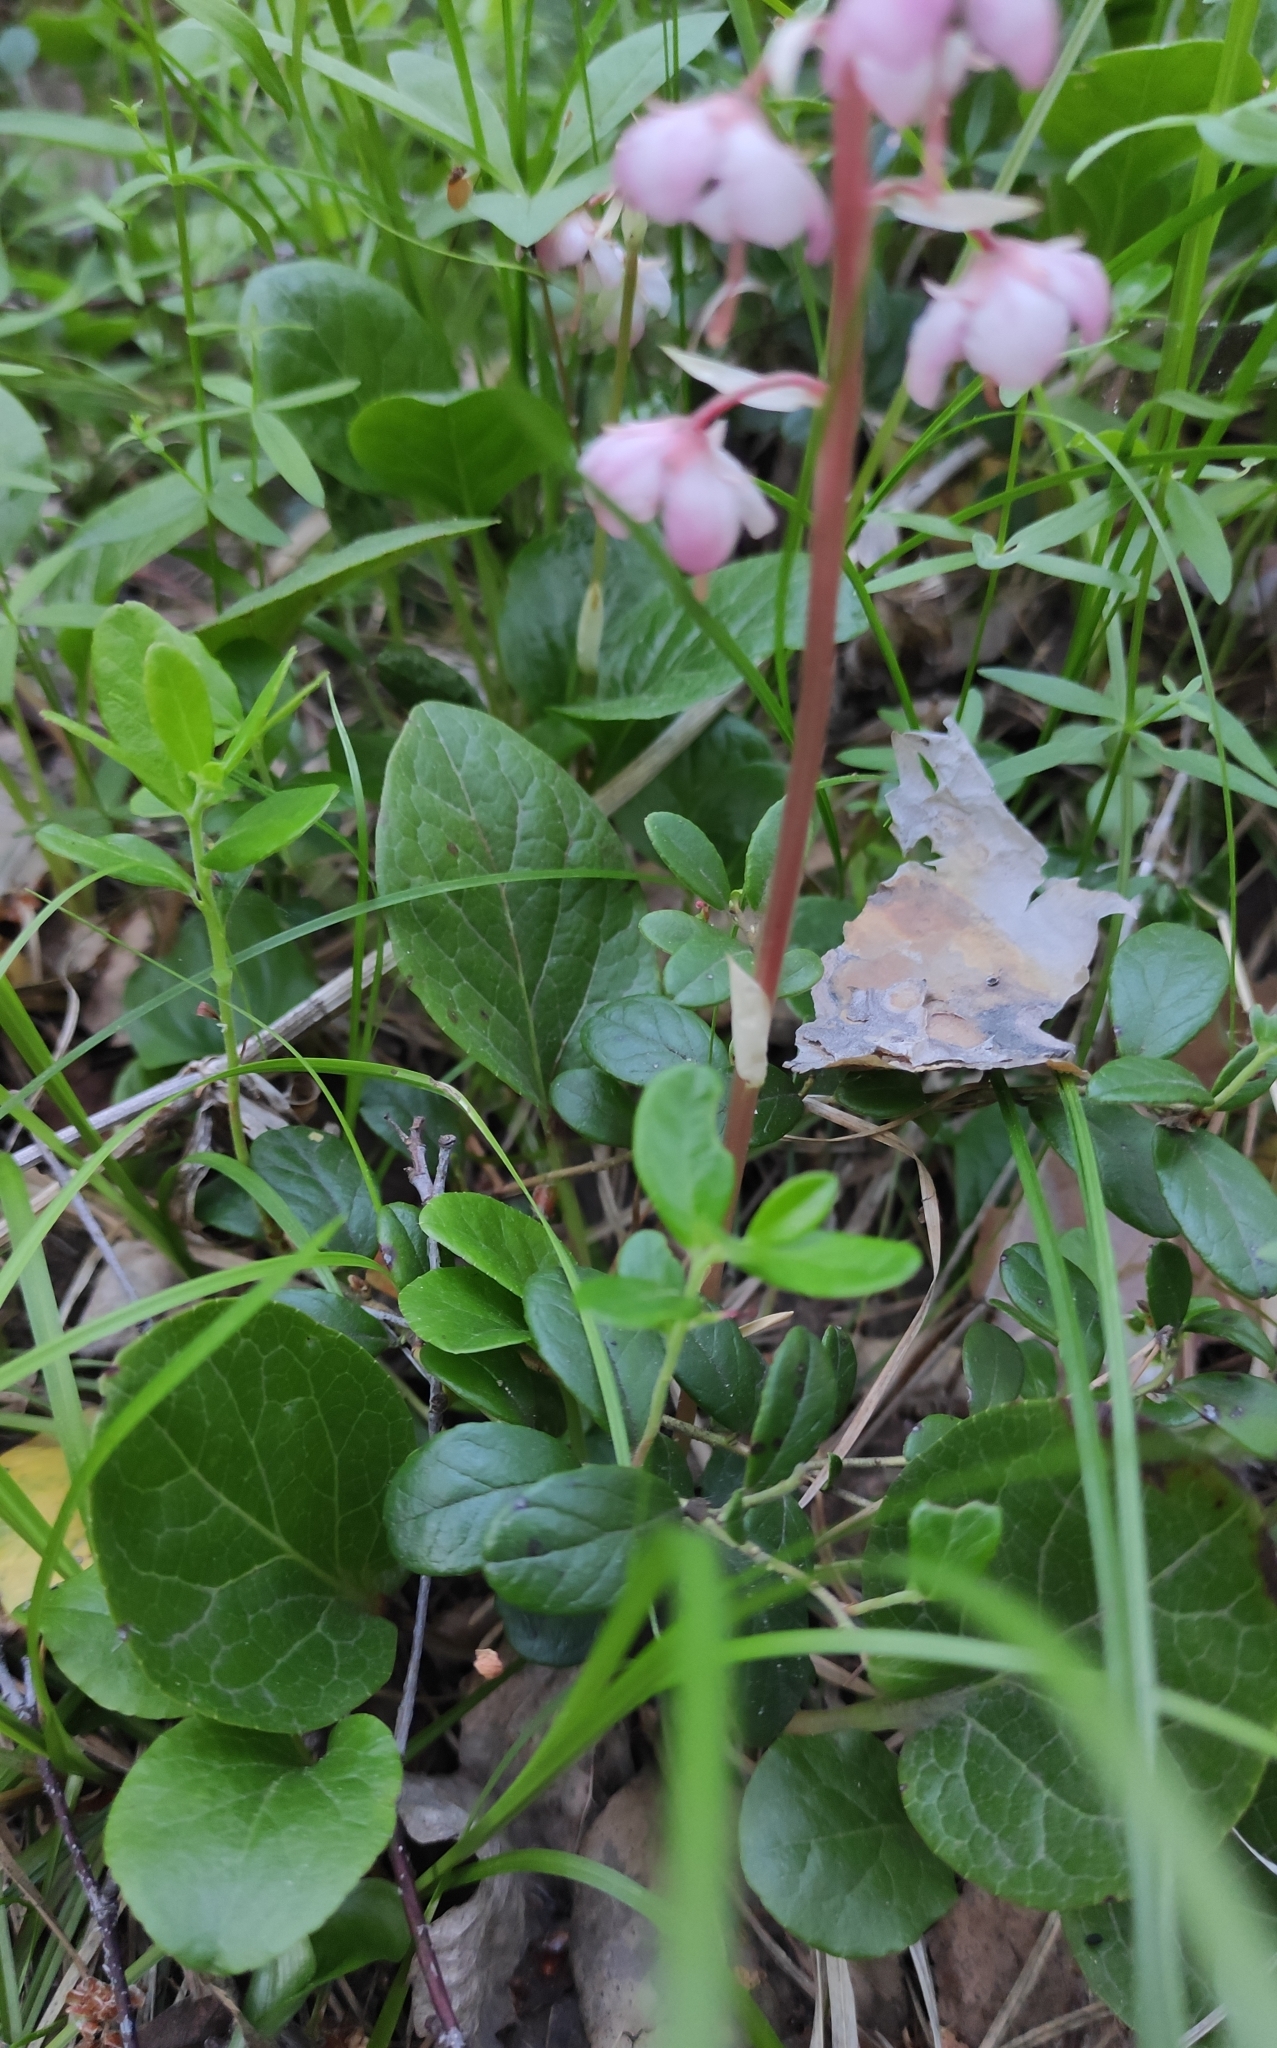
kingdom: Plantae
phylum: Tracheophyta
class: Magnoliopsida
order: Ericales
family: Ericaceae
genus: Pyrola
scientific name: Pyrola asarifolia
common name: Bog wintergreen
